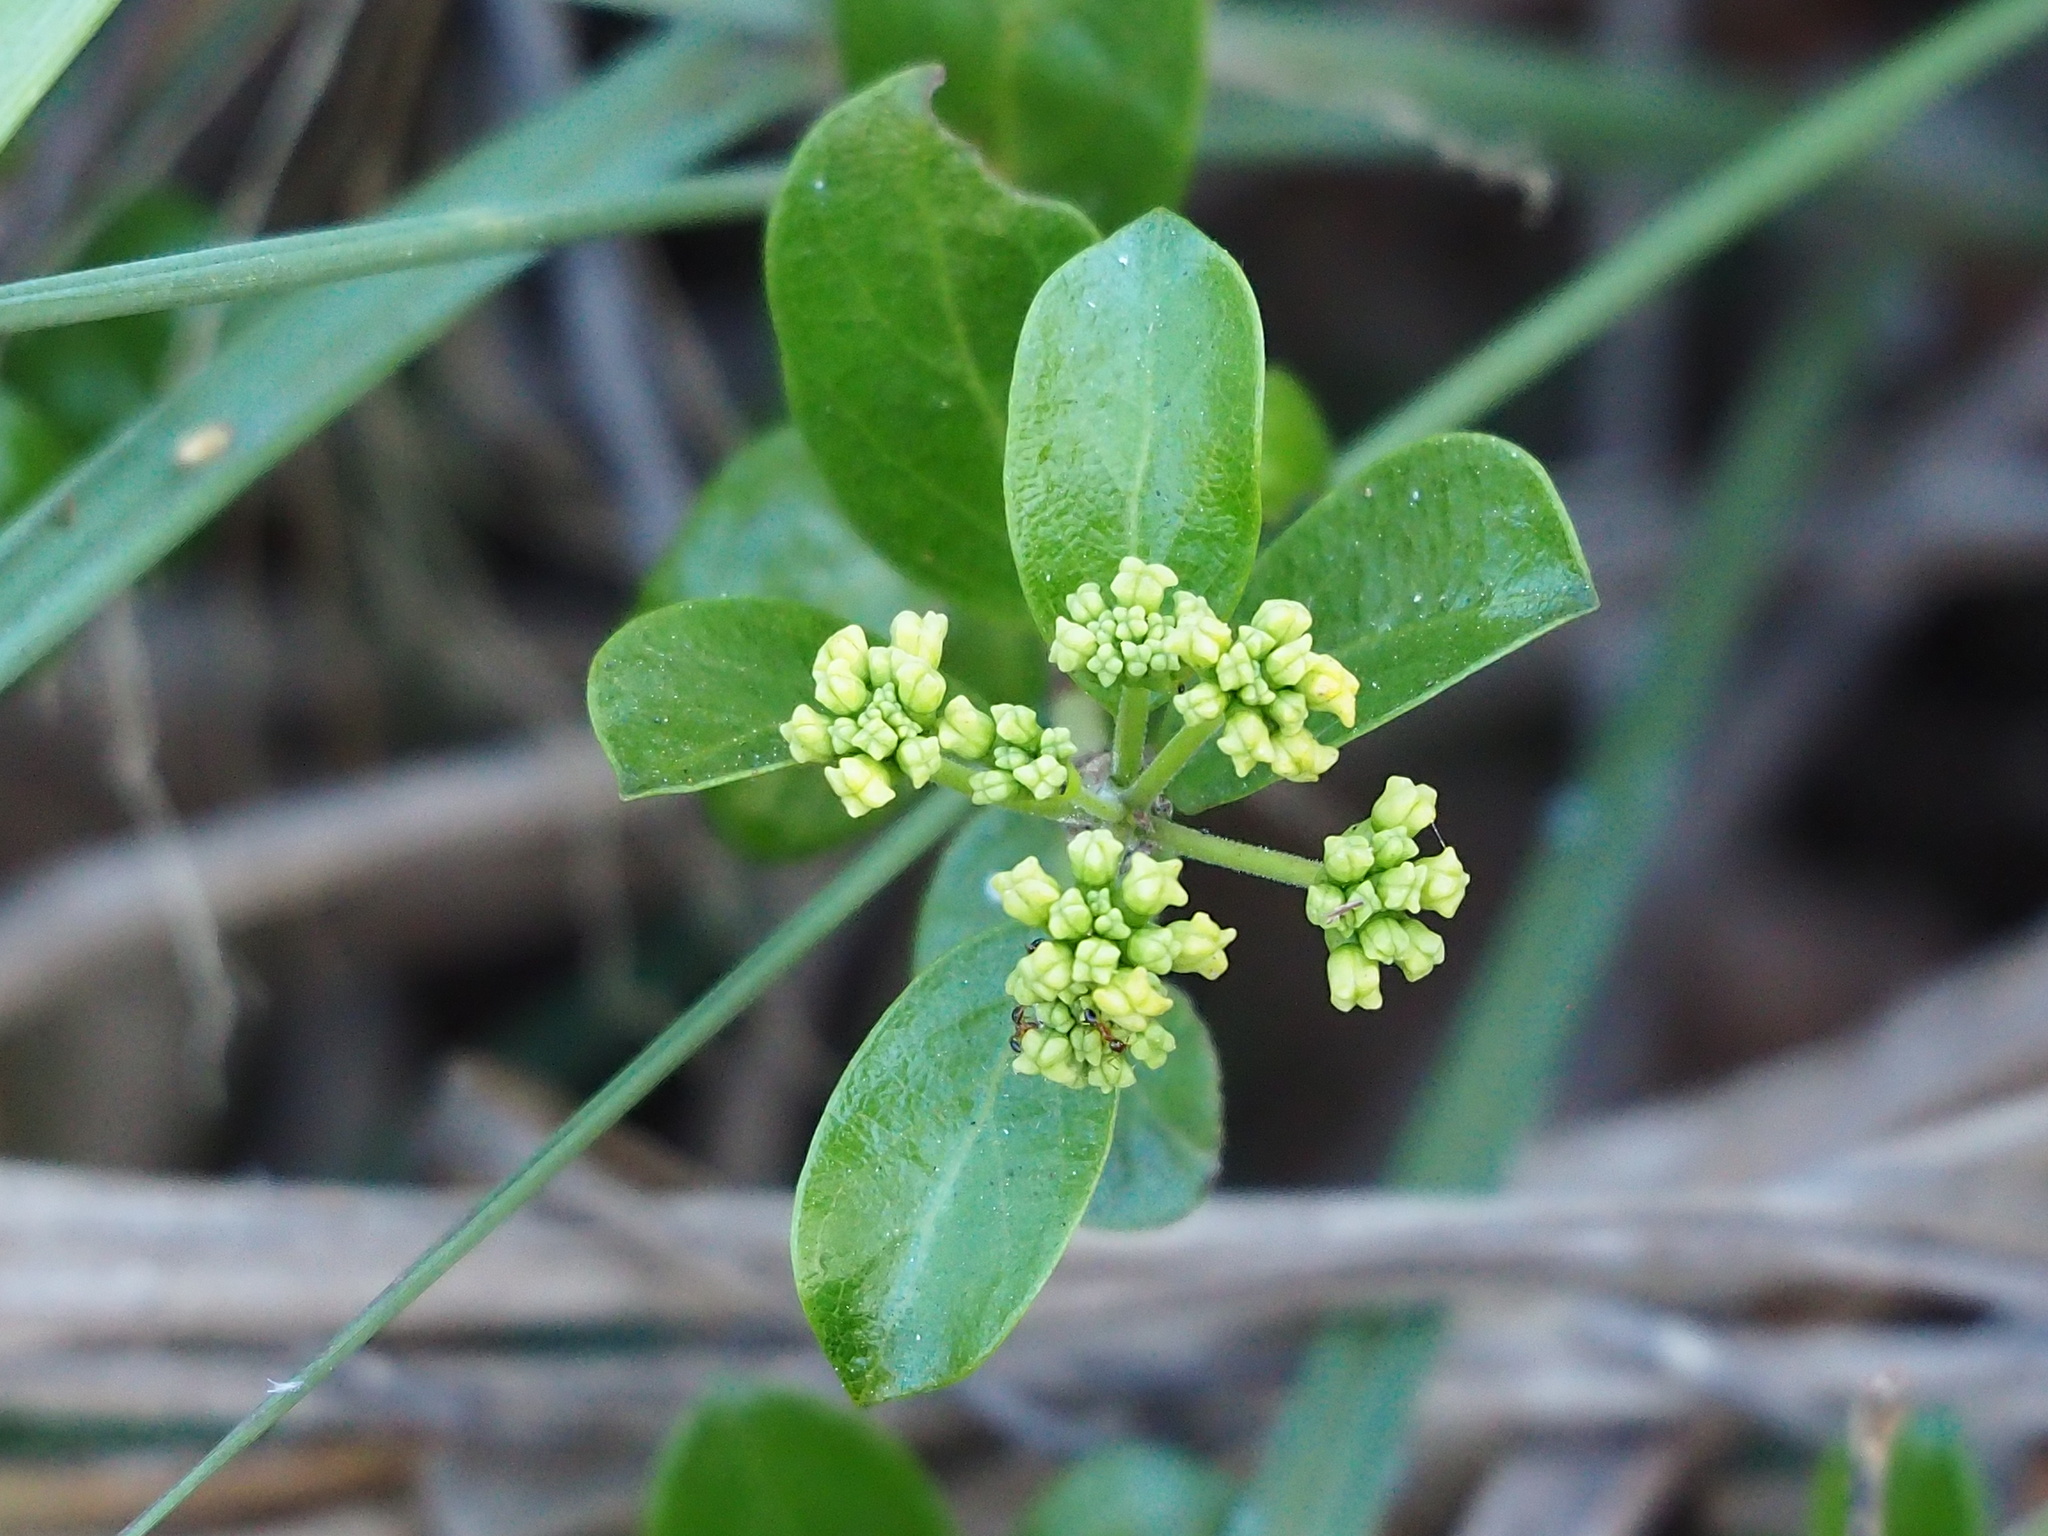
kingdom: Plantae
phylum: Tracheophyta
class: Magnoliopsida
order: Gentianales
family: Apocynaceae
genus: Gymnema
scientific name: Gymnema sylvestre
